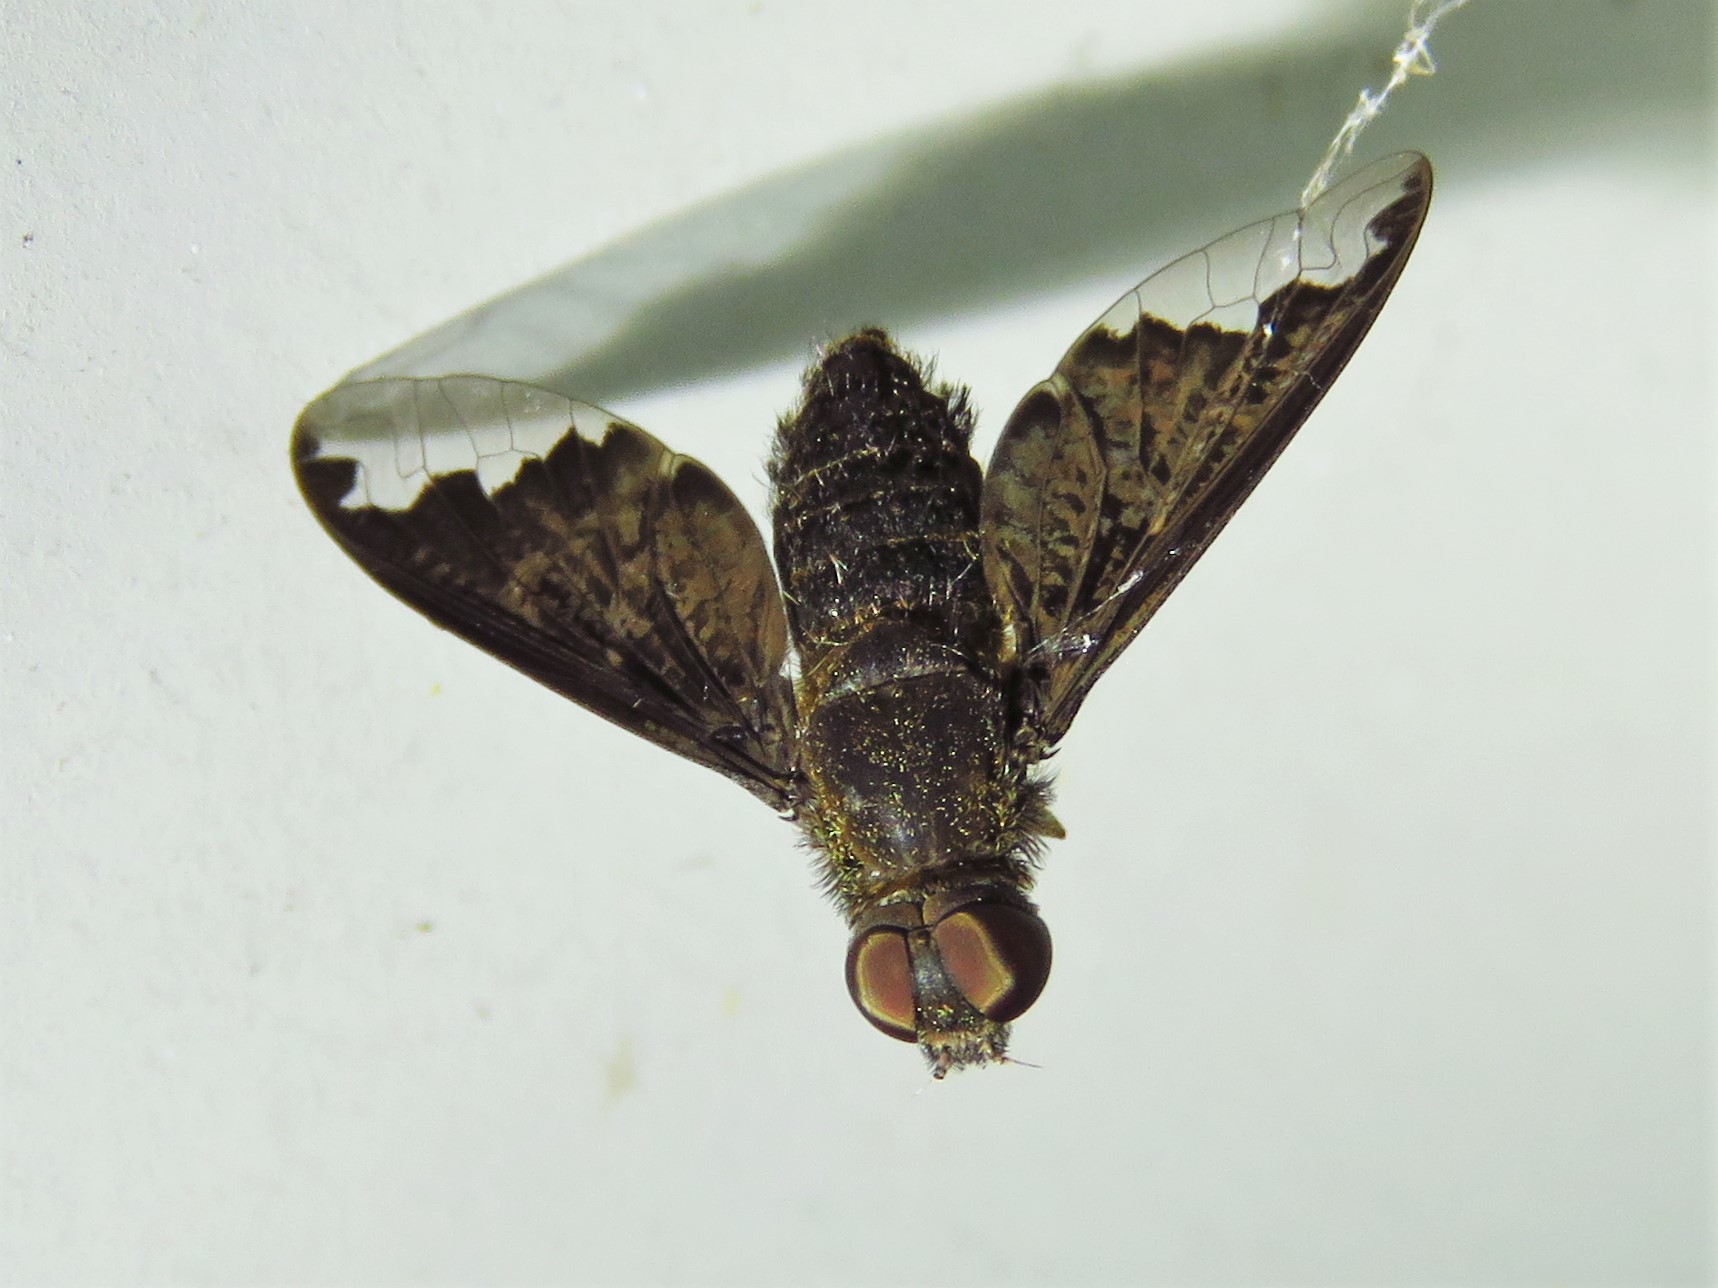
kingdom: Animalia
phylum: Arthropoda
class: Insecta
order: Diptera
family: Bombyliidae
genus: Hemipenthes
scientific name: Hemipenthes sinuosus
